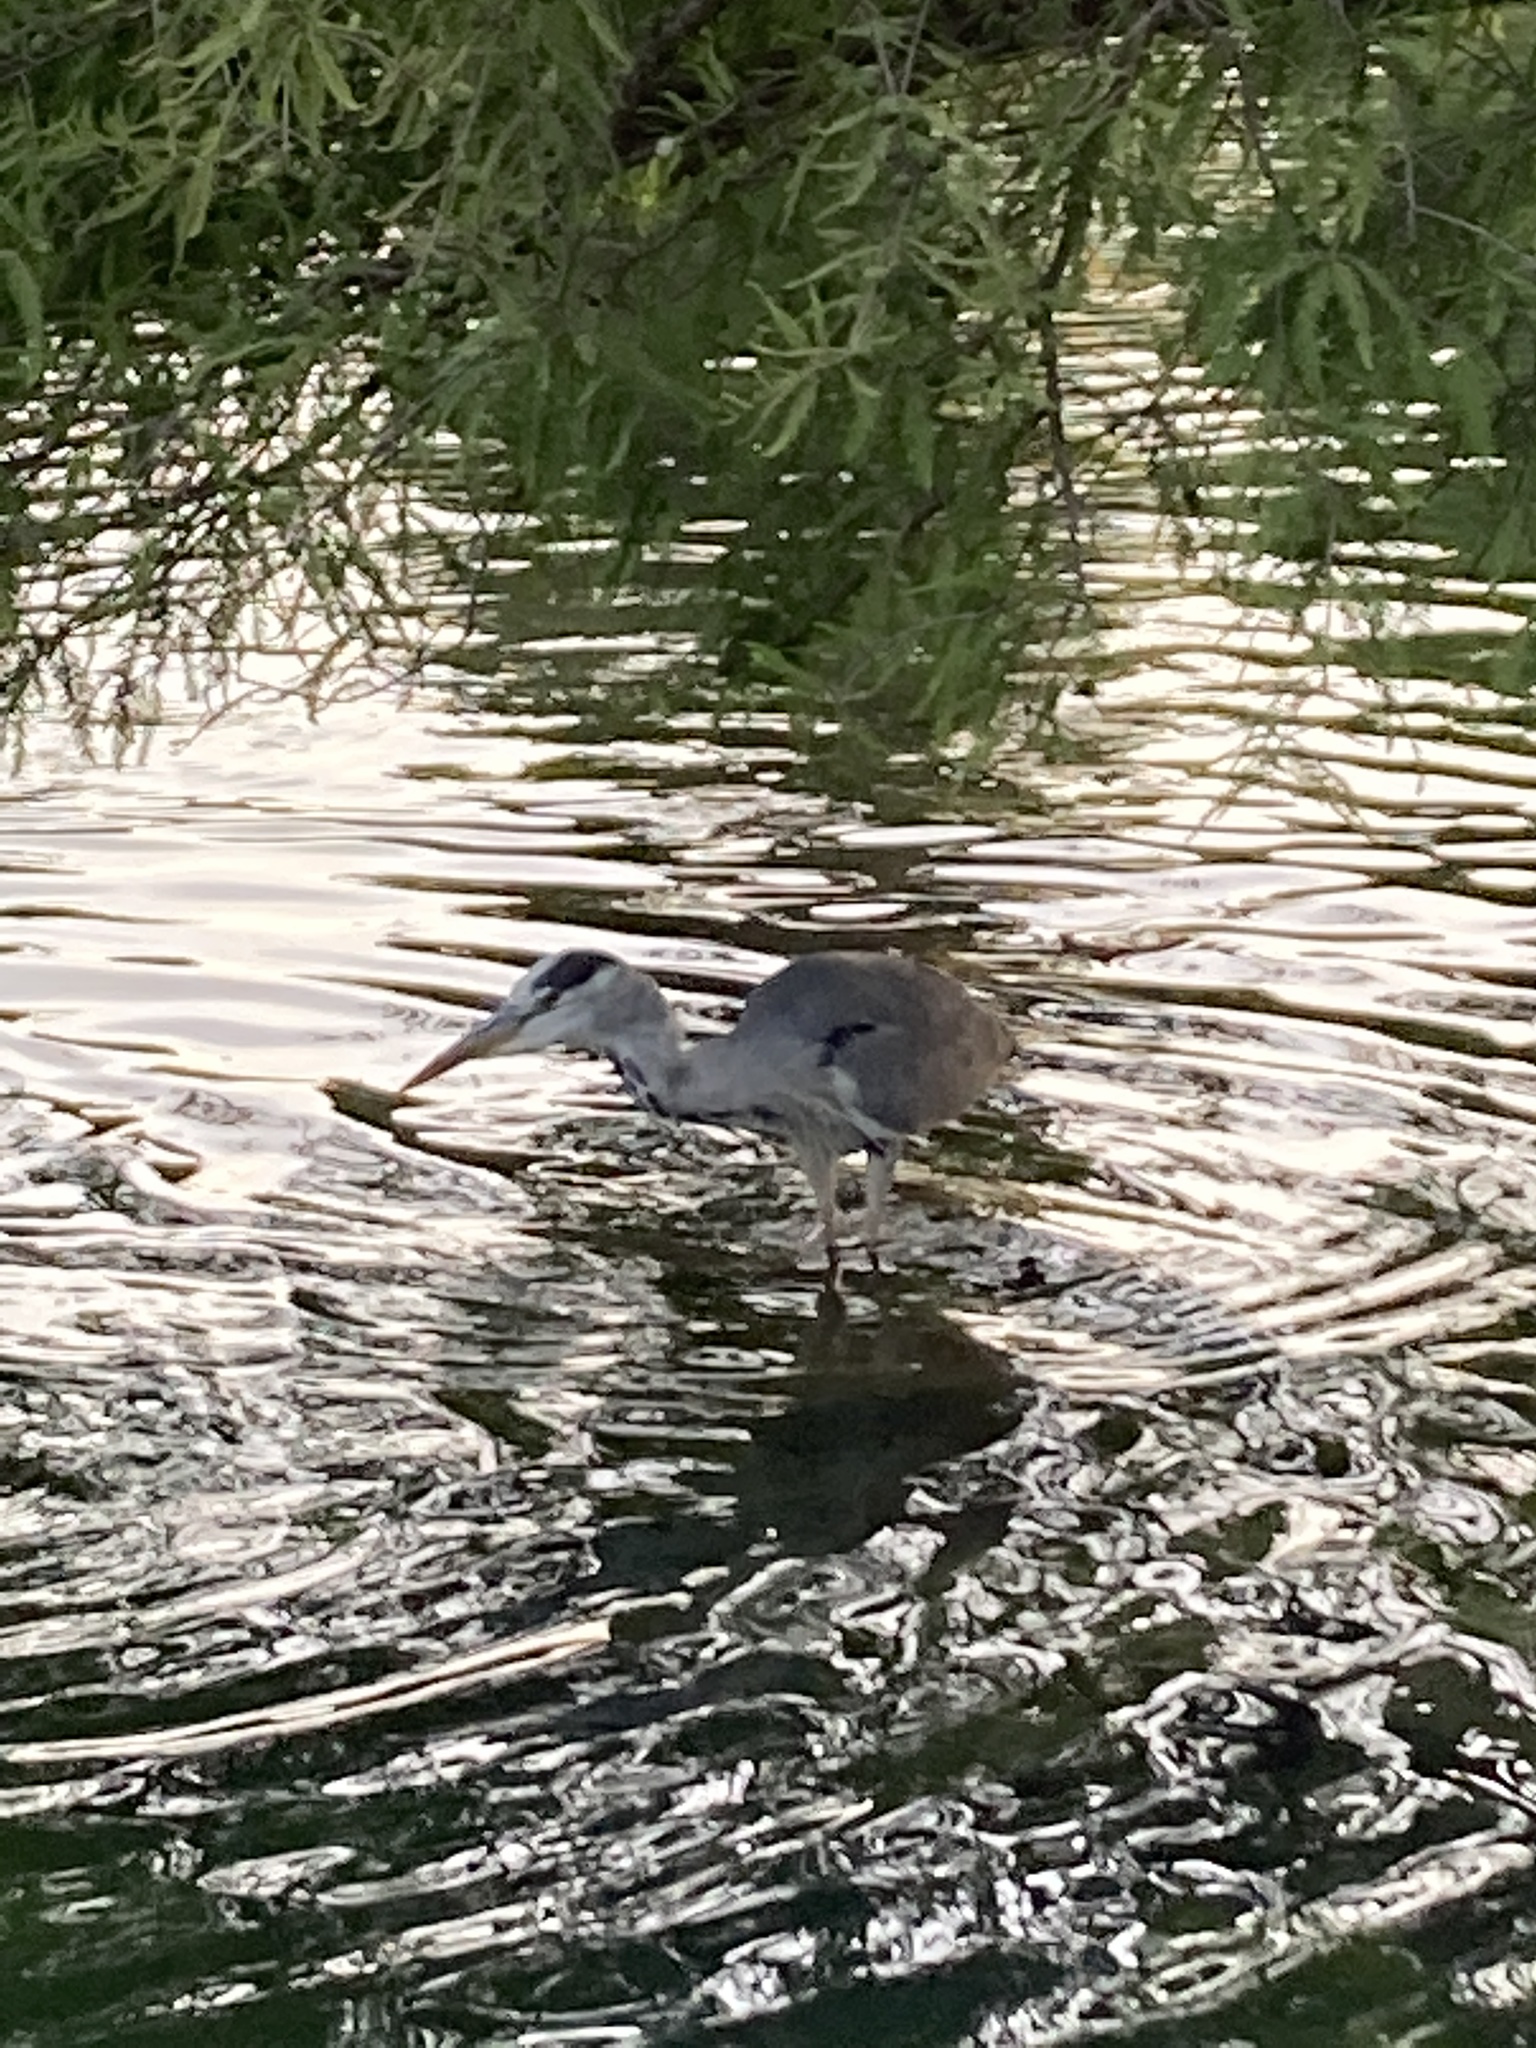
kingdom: Animalia
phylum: Chordata
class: Aves
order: Pelecaniformes
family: Ardeidae
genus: Ardea
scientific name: Ardea cinerea
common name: Grey heron
